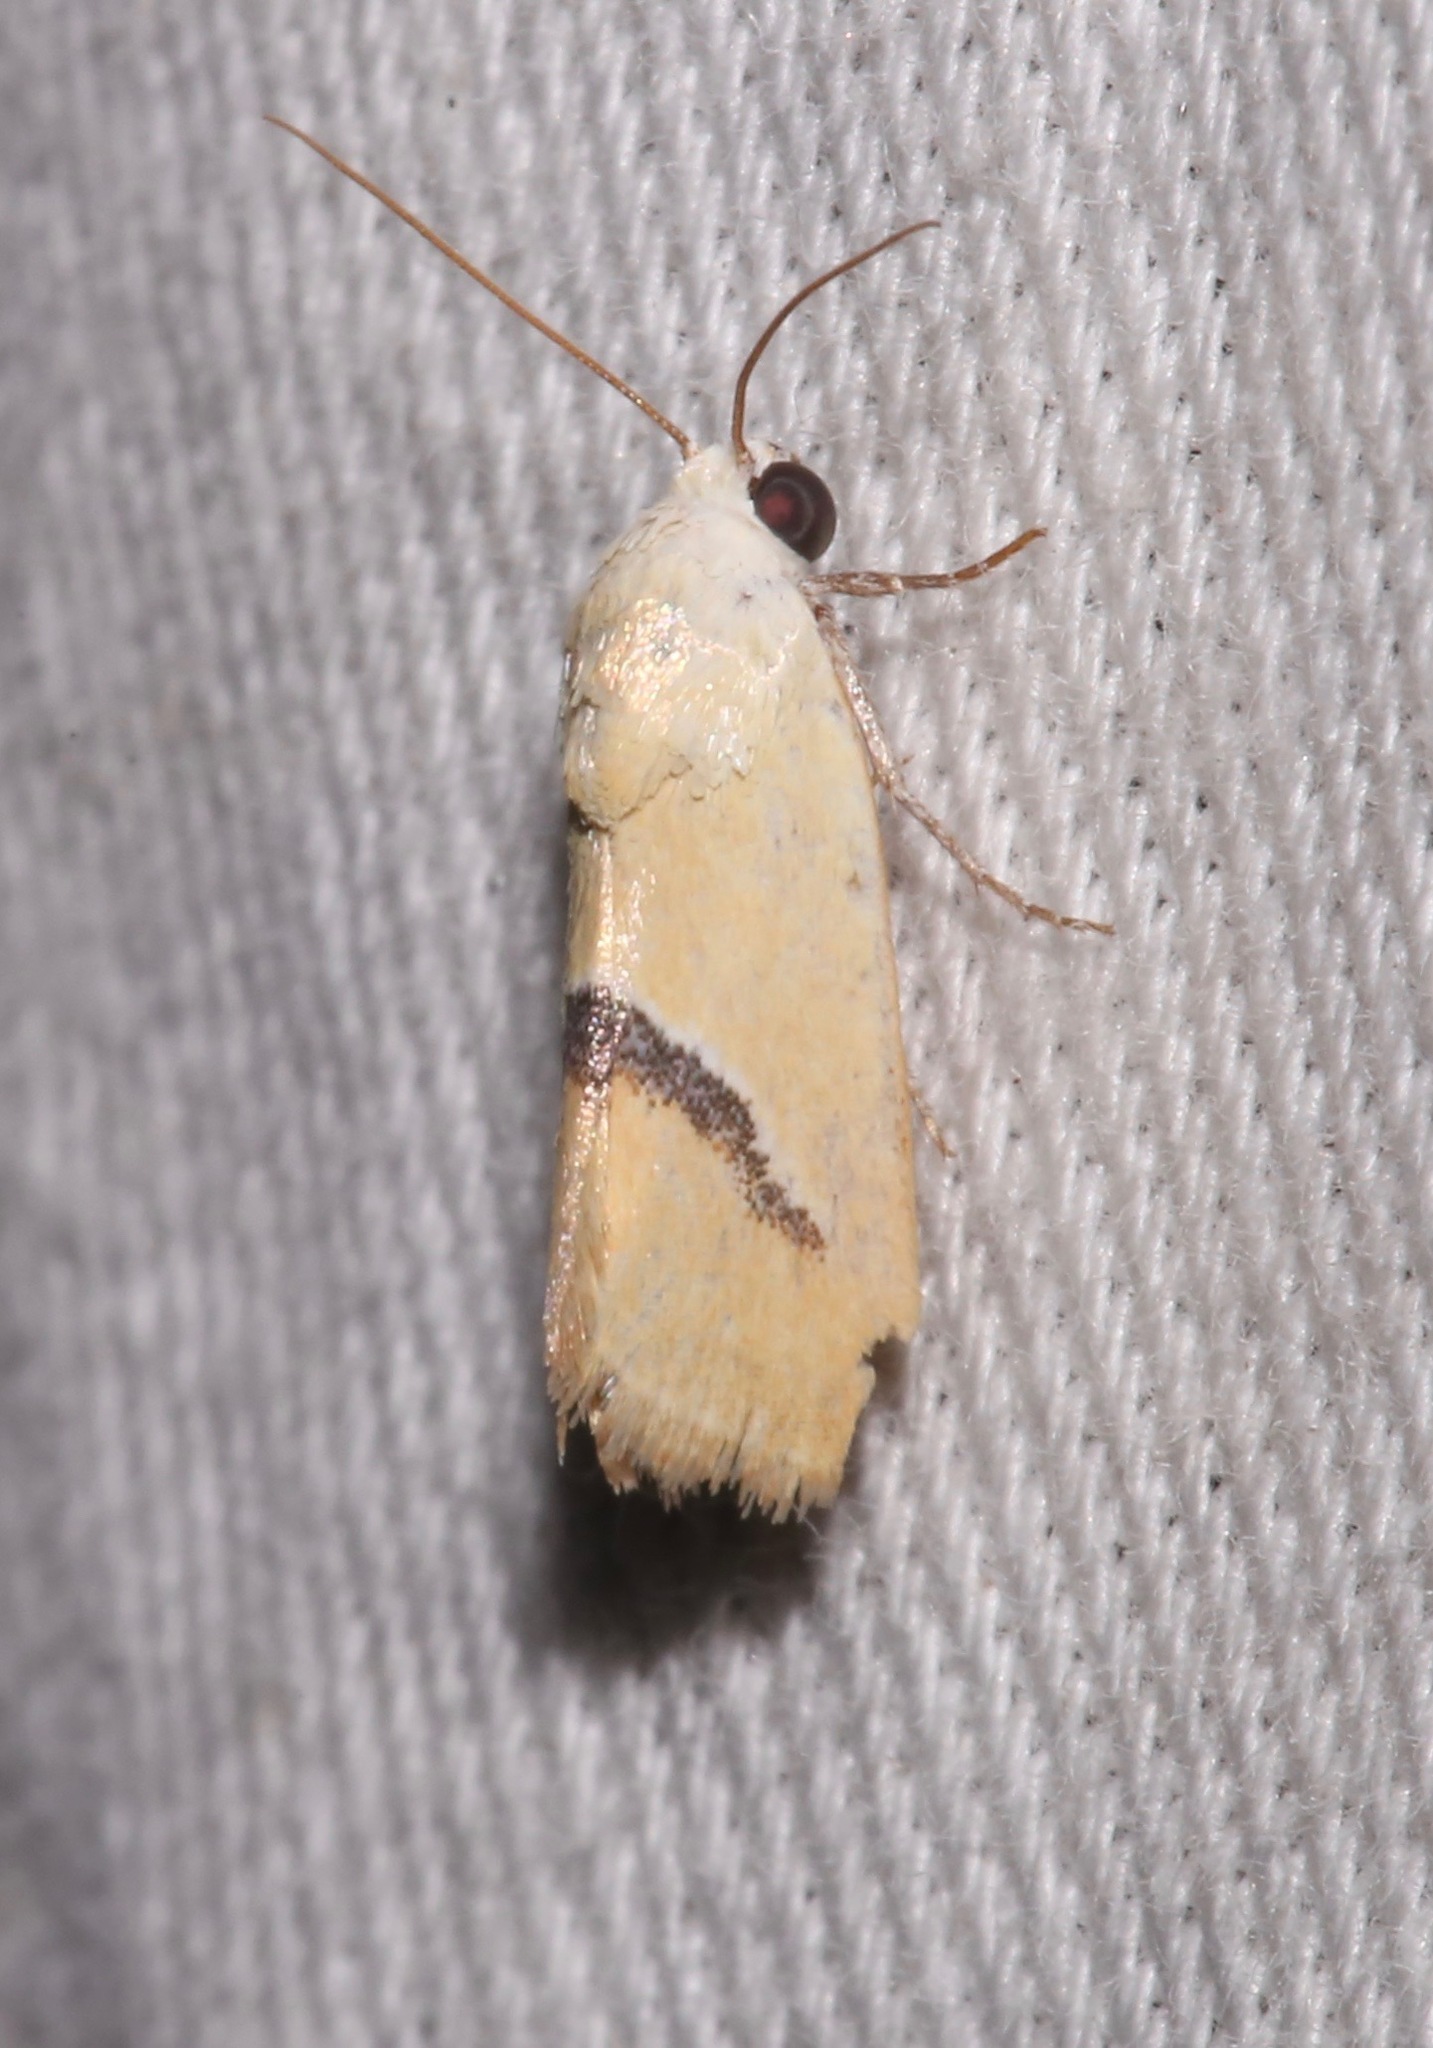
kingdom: Animalia
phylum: Arthropoda
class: Insecta
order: Lepidoptera
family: Noctuidae
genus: Ponometia
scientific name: Ponometia venustula
